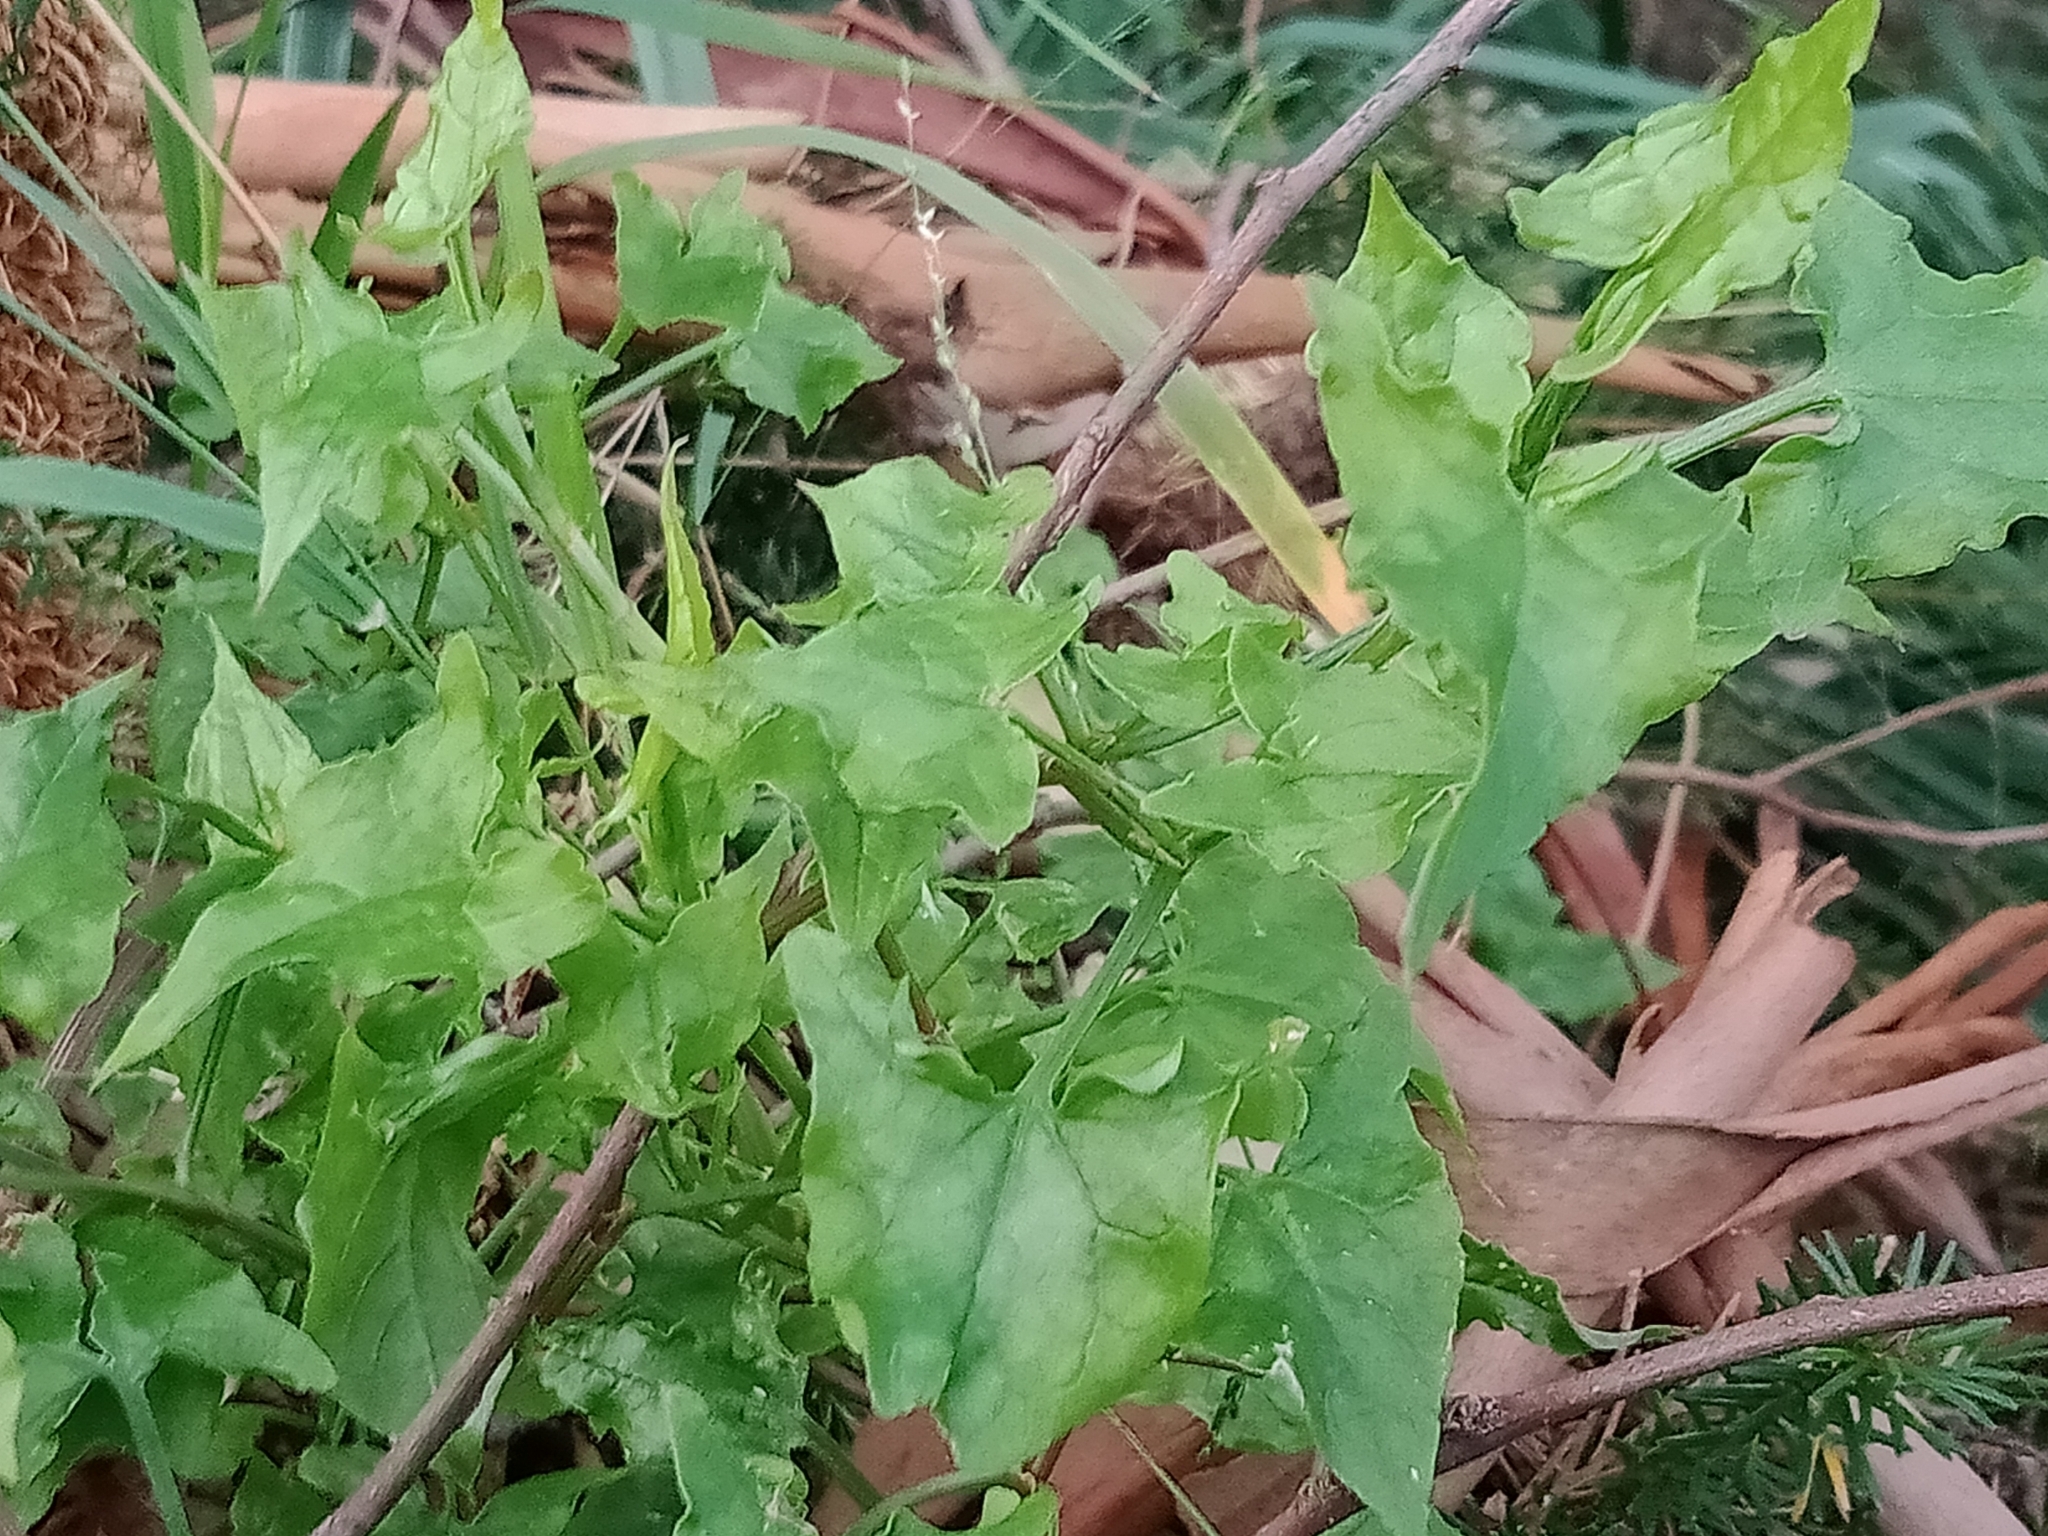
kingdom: Plantae
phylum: Tracheophyta
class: Magnoliopsida
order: Caryophyllales
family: Polygonaceae
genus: Rumex
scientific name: Rumex sagittatus
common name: Climbing dock
